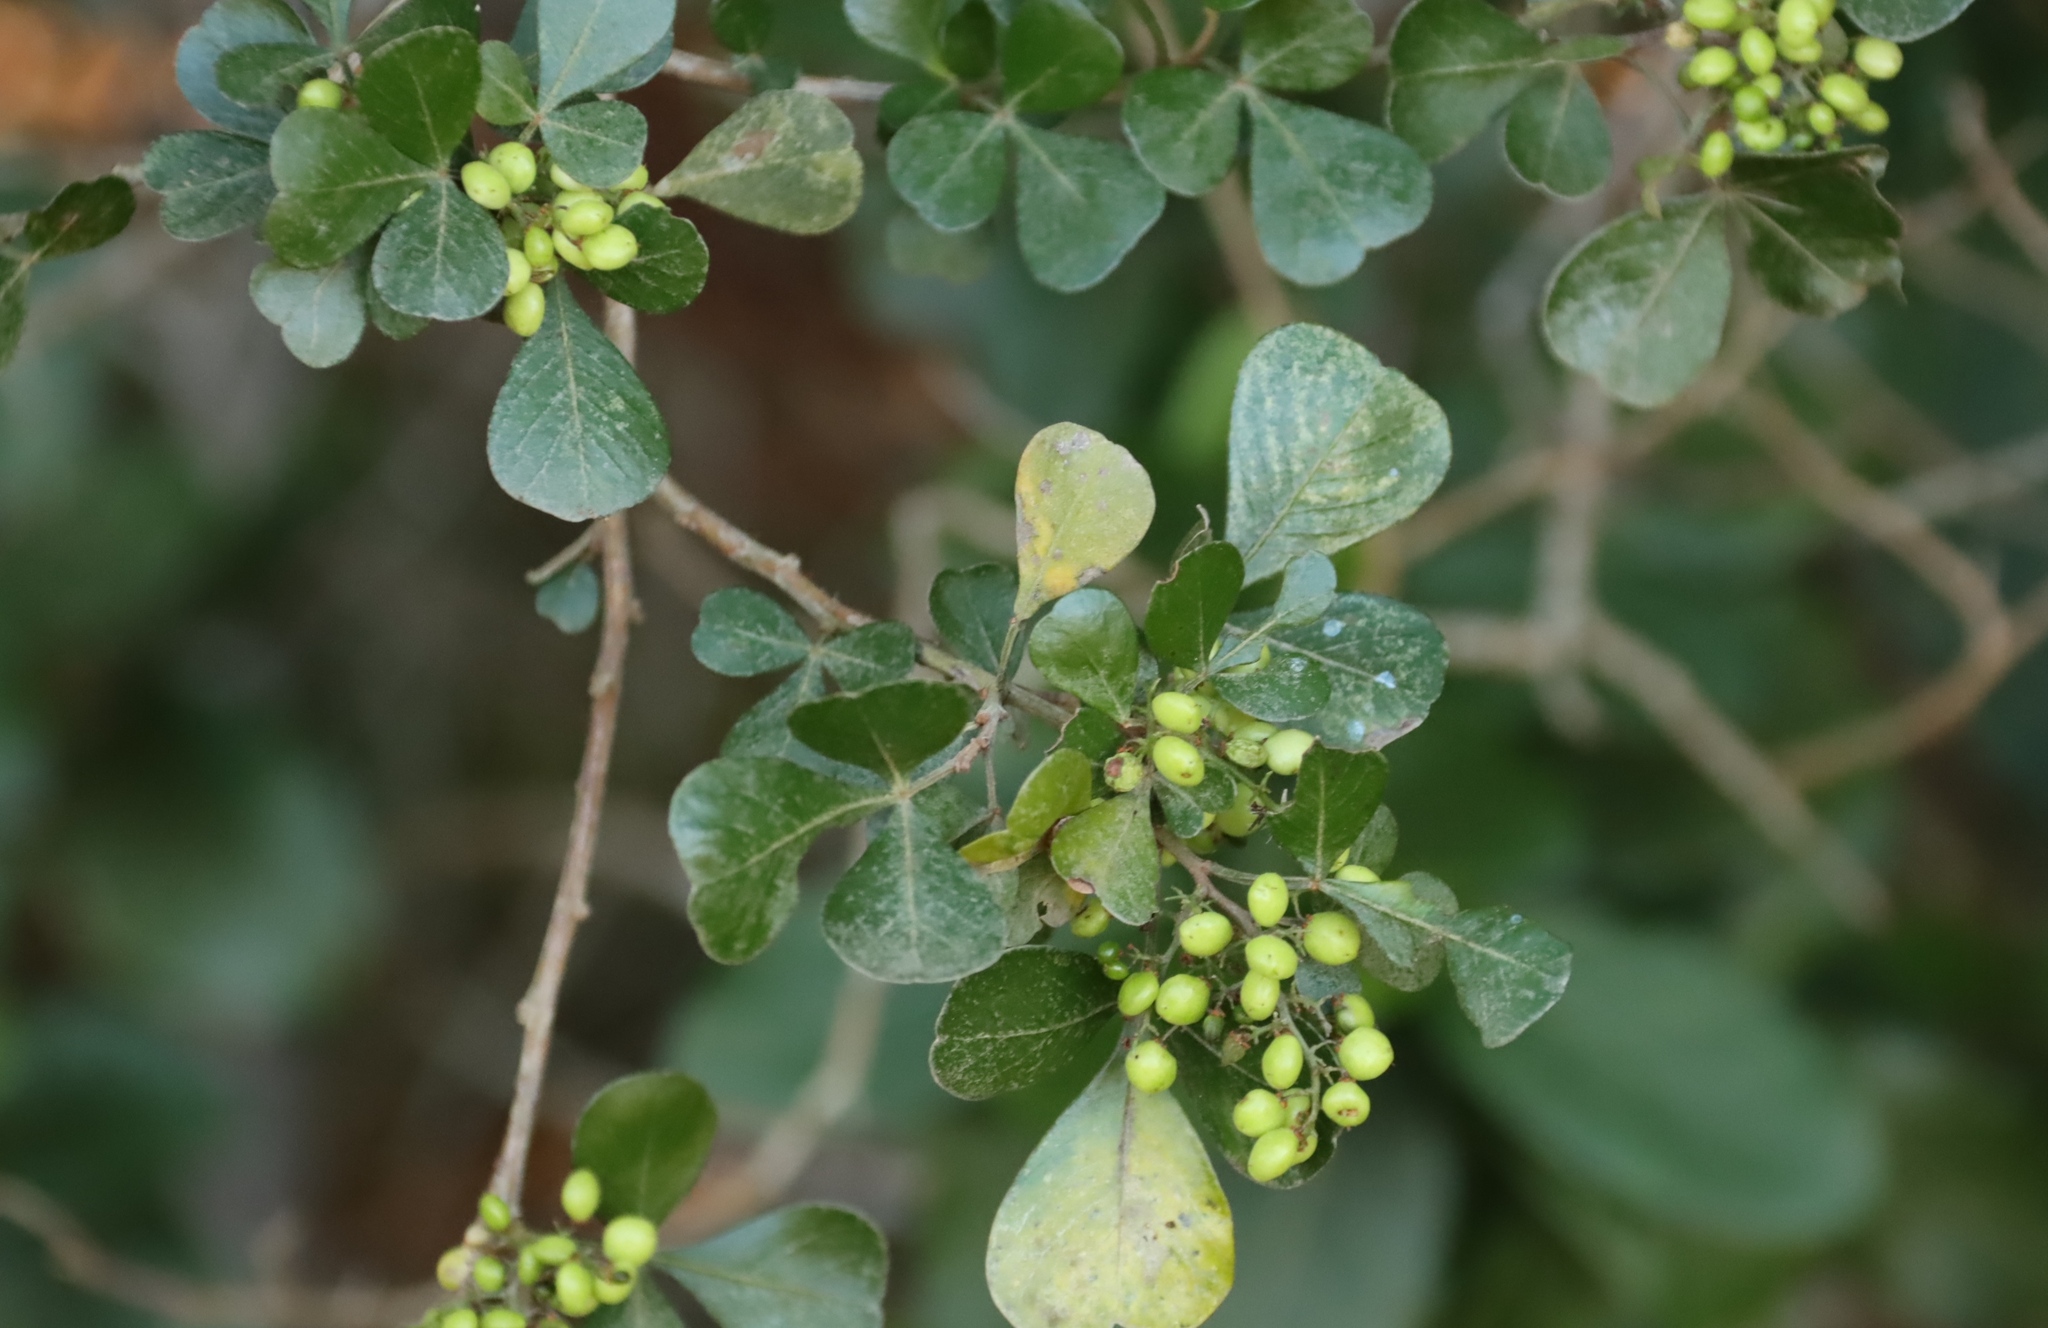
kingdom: Plantae
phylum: Tracheophyta
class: Magnoliopsida
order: Sapindales
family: Anacardiaceae
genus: Searsia
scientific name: Searsia glauca
